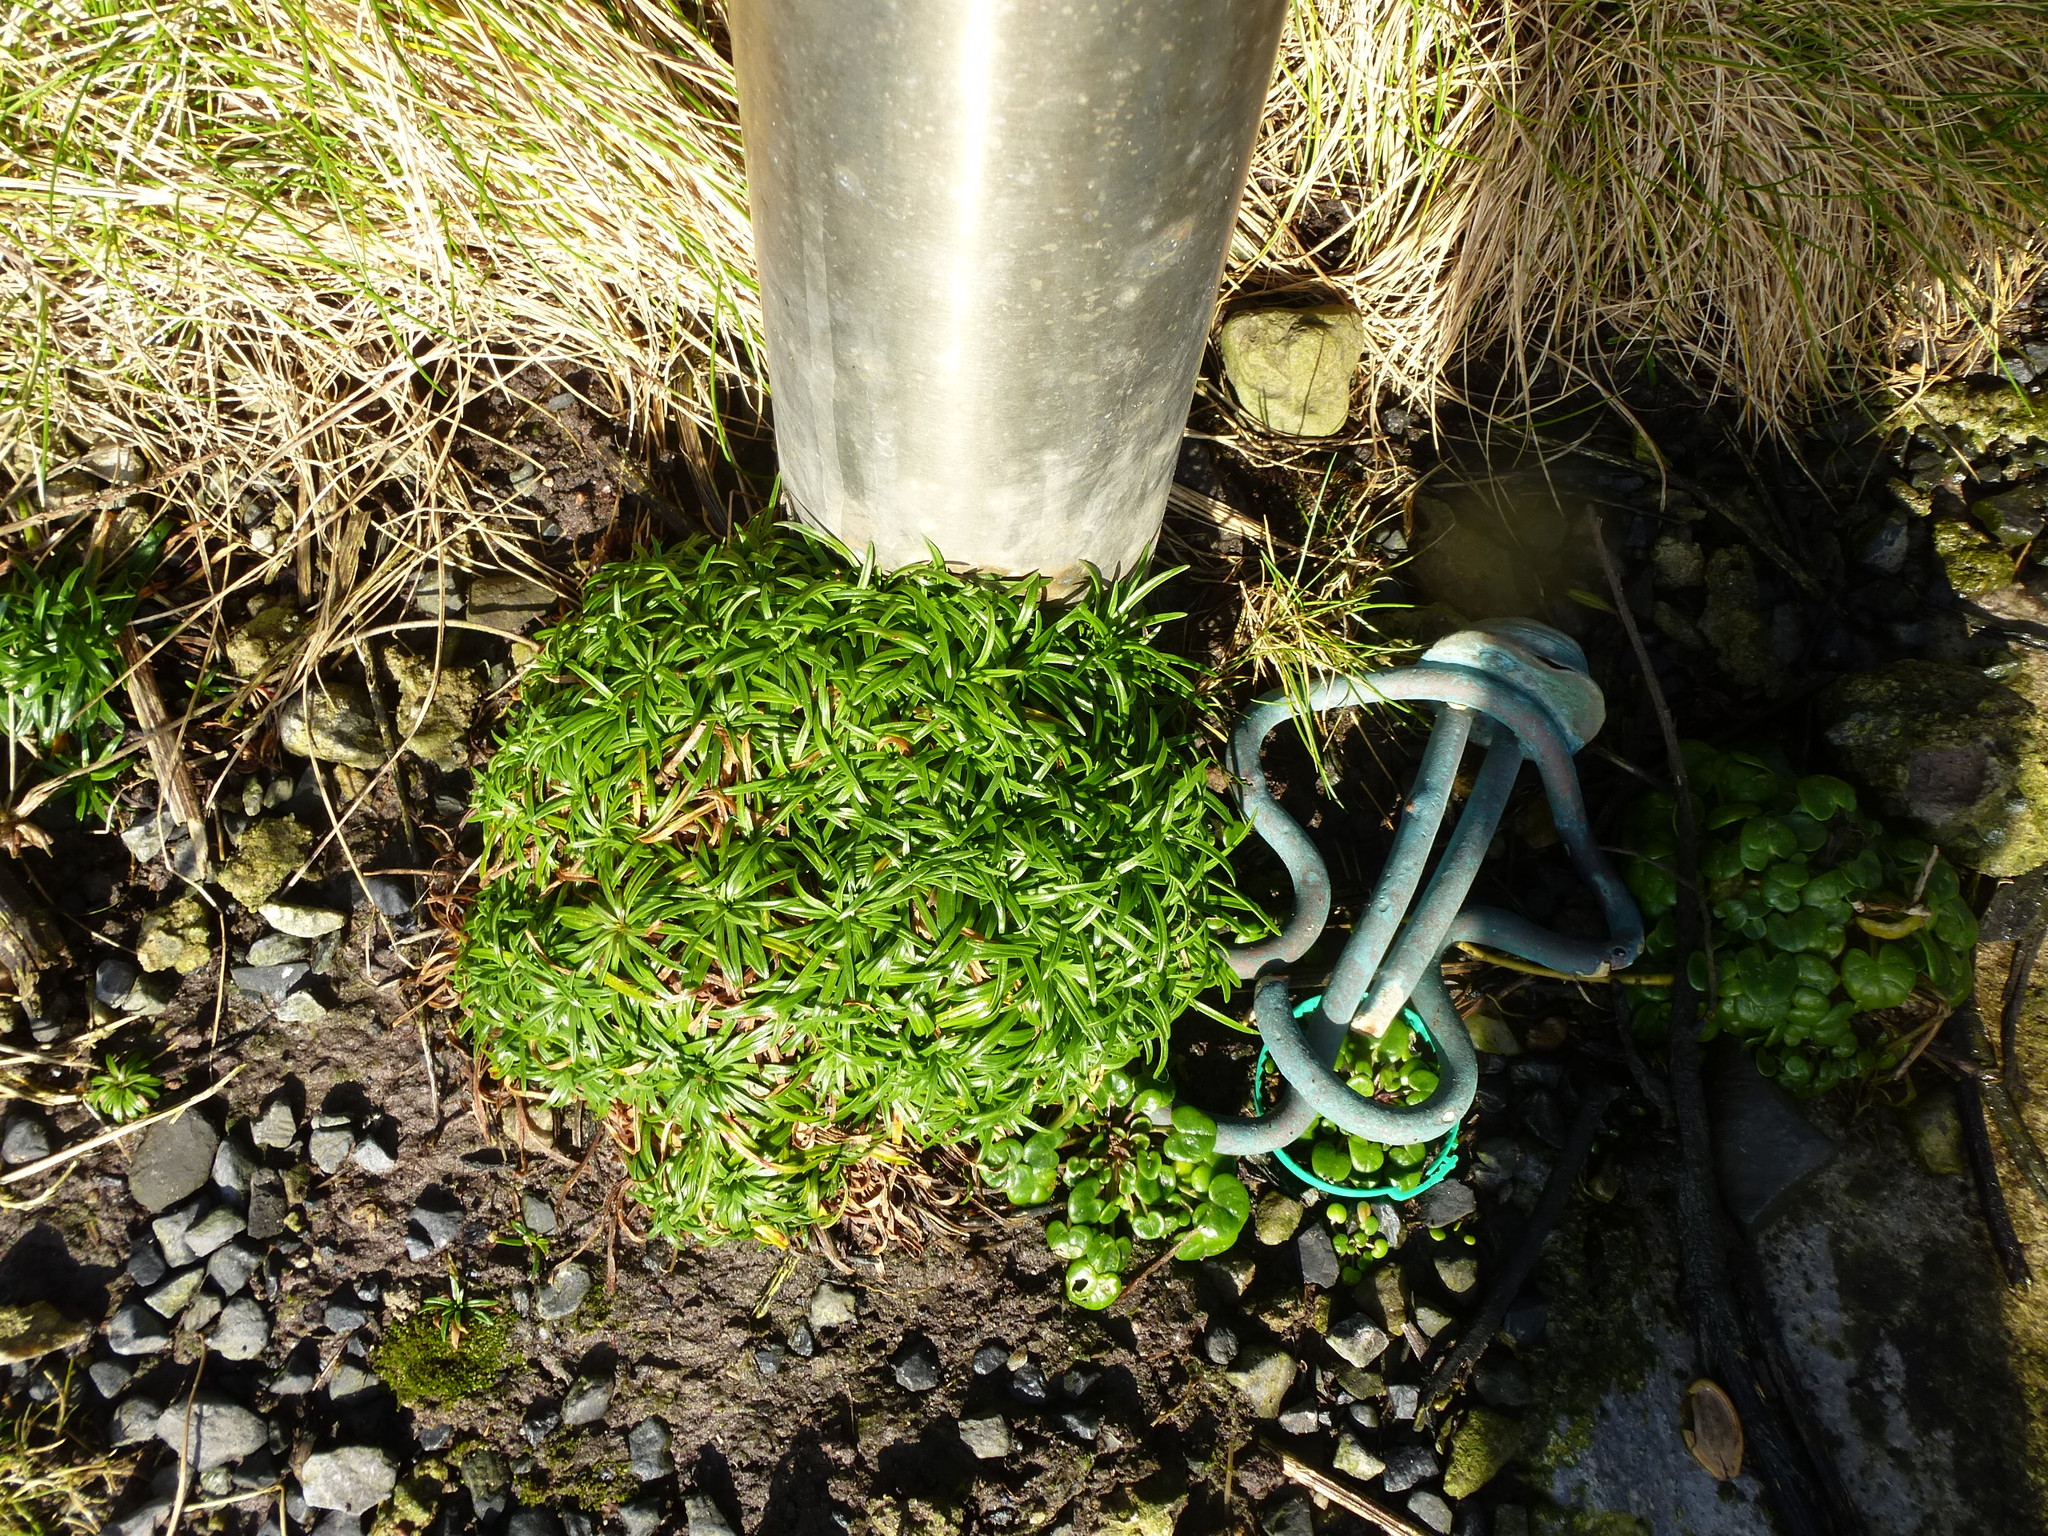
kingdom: Plantae
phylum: Tracheophyta
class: Magnoliopsida
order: Caryophyllales
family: Plumbaginaceae
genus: Armeria
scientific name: Armeria maritima
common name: Thrift
